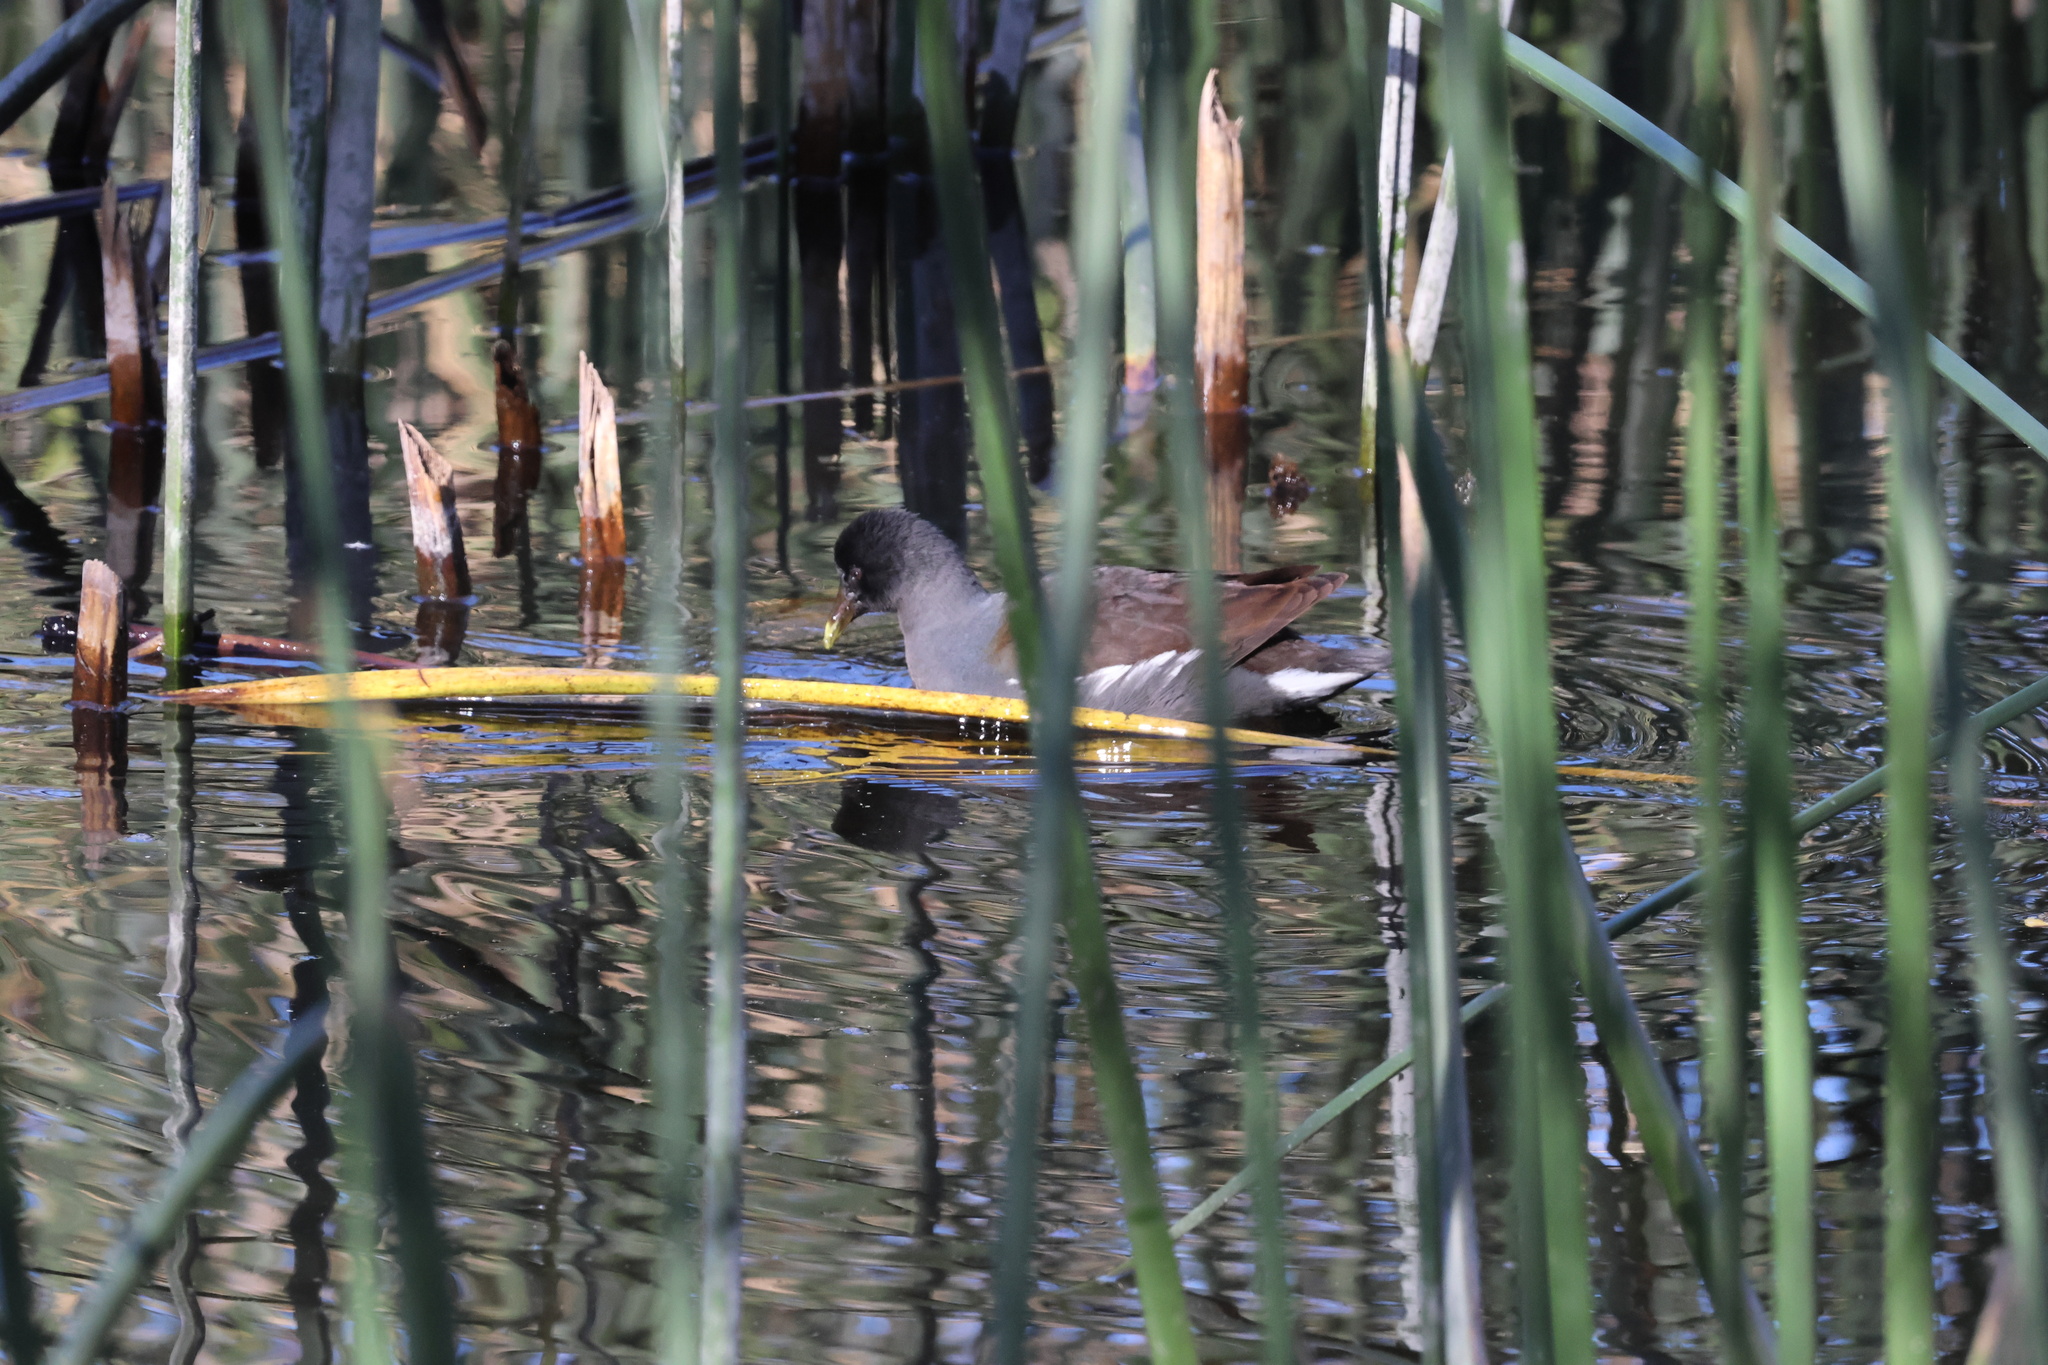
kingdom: Animalia
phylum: Chordata
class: Aves
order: Gruiformes
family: Rallidae
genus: Gallinula
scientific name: Gallinula chloropus
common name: Common moorhen
